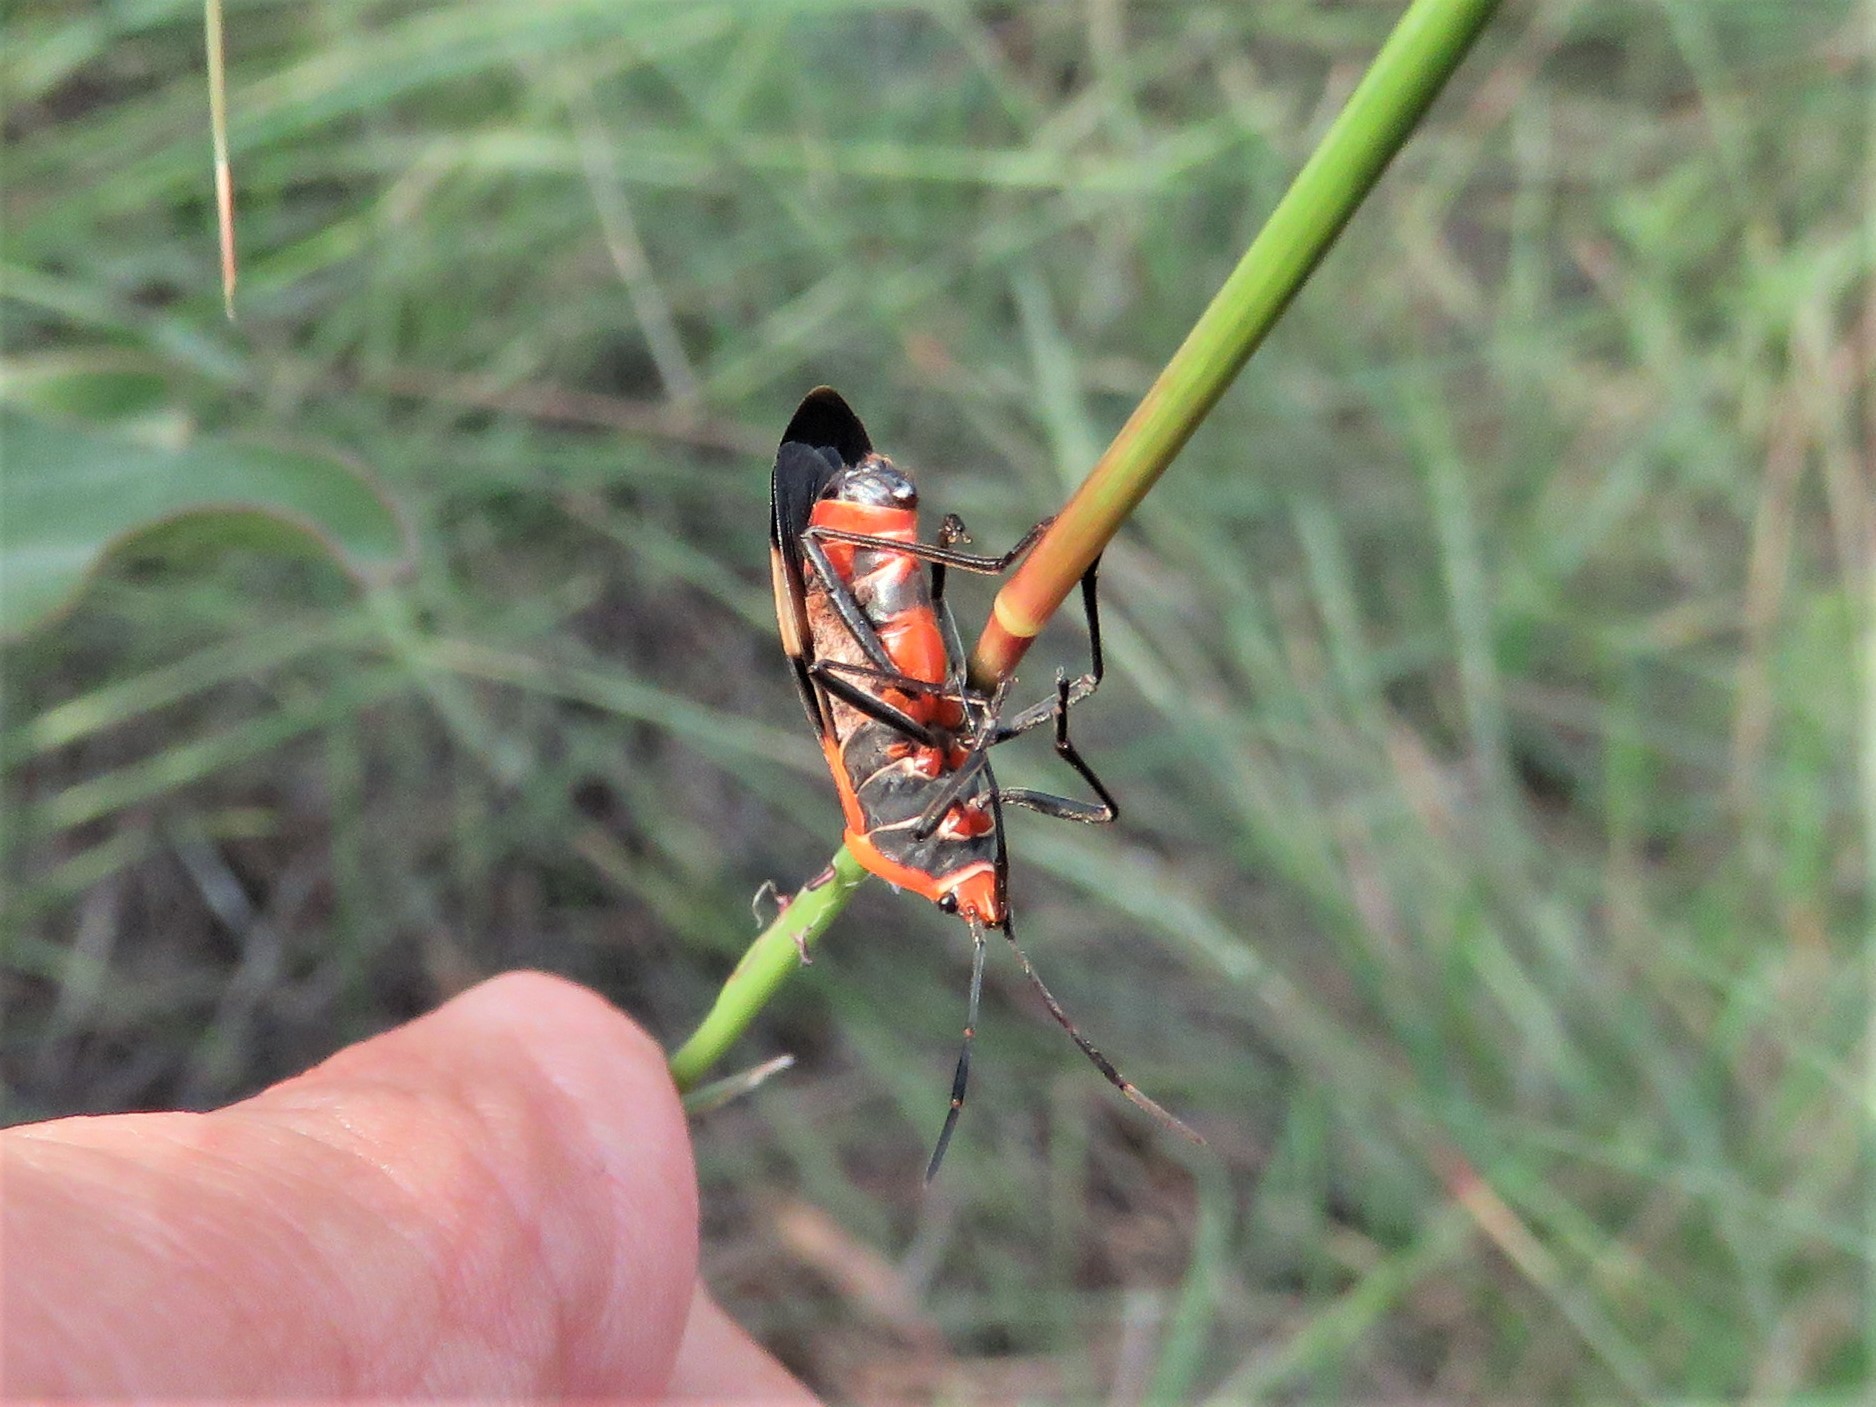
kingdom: Animalia
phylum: Arthropoda
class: Insecta
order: Hemiptera
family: Lygaeidae
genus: Oncopeltus
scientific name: Oncopeltus fasciatus
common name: Large milkweed bug
